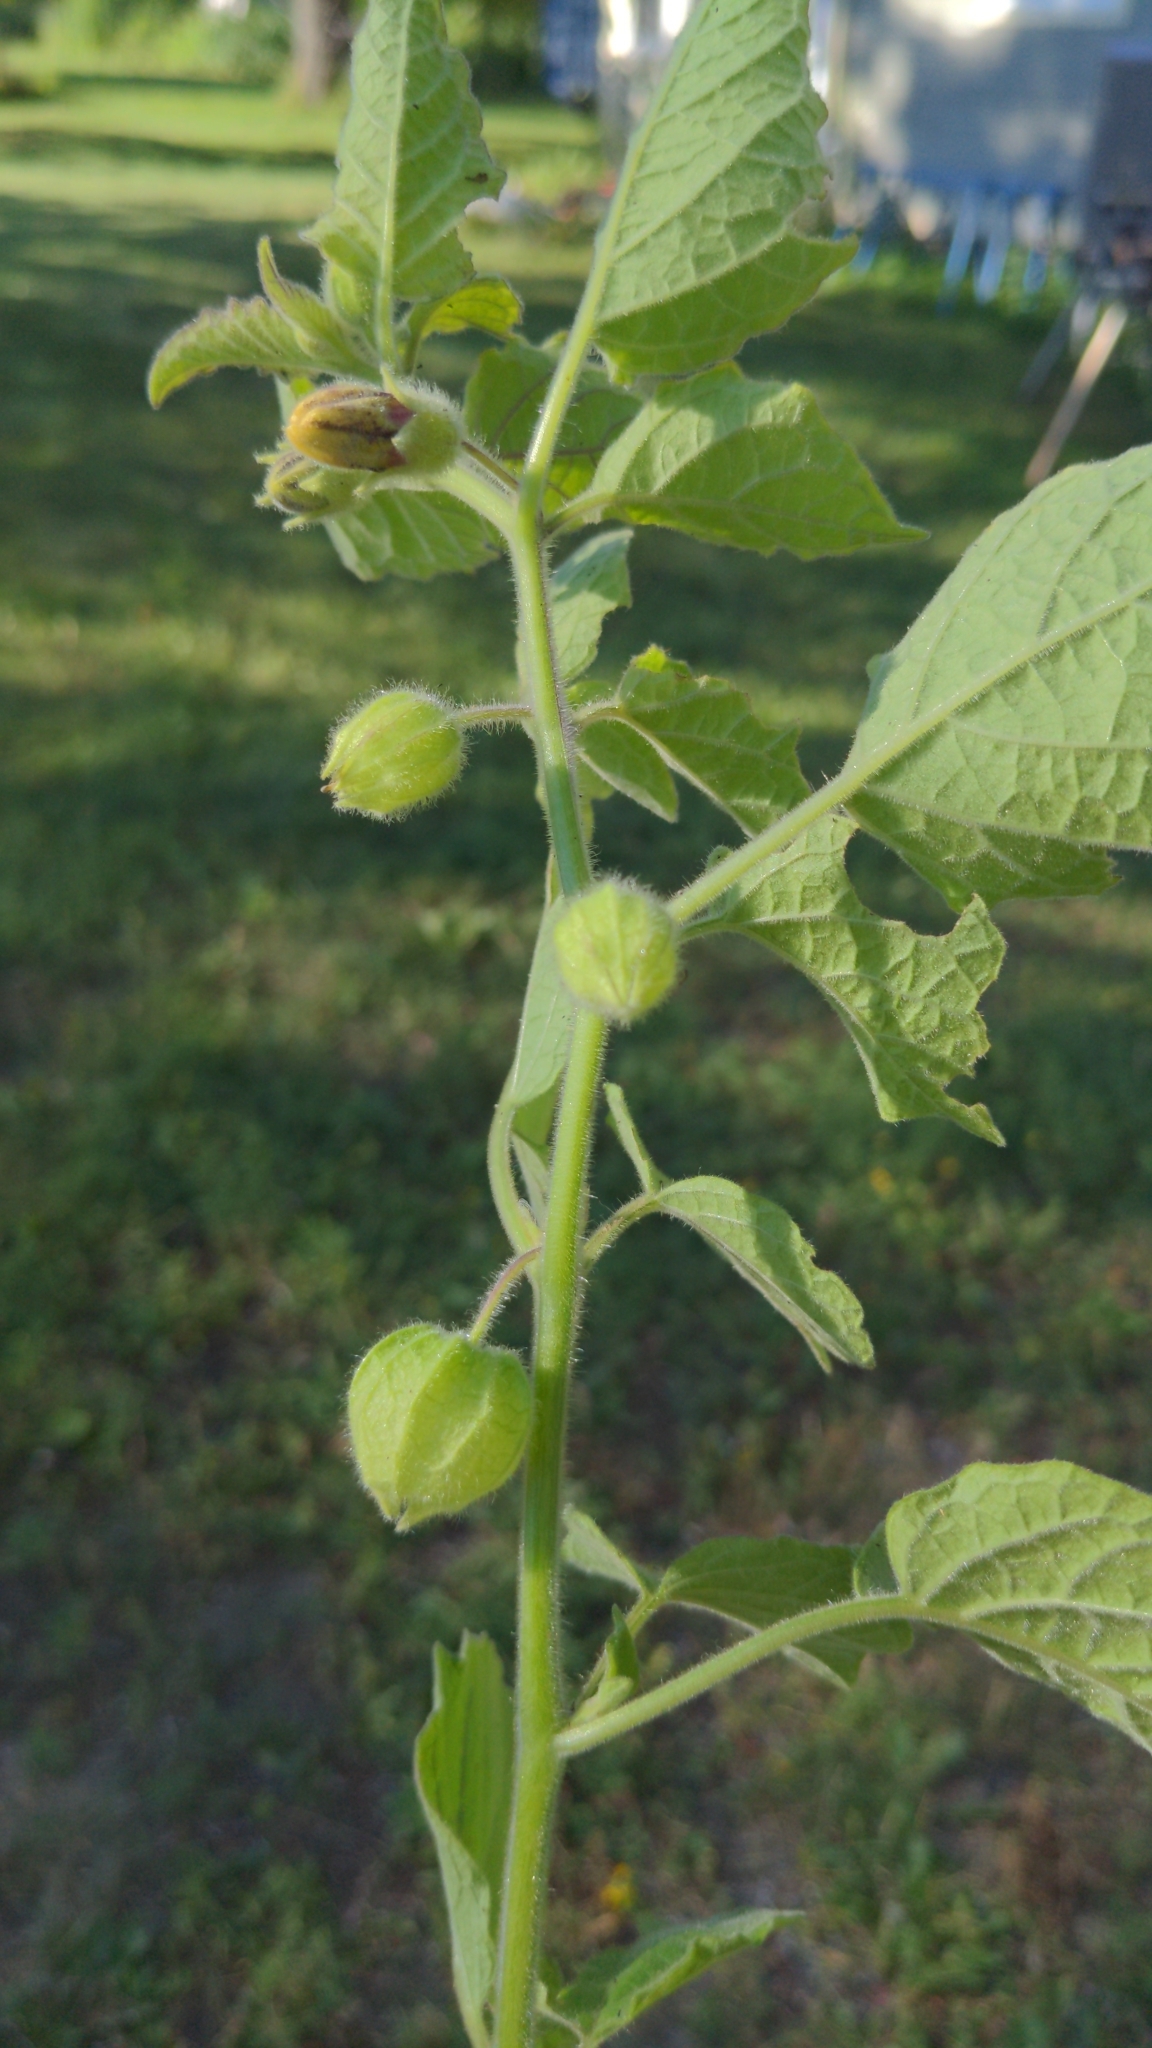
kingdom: Plantae
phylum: Tracheophyta
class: Magnoliopsida
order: Solanales
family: Solanaceae
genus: Physalis
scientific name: Physalis heterophylla
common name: Clammy ground-cherry
